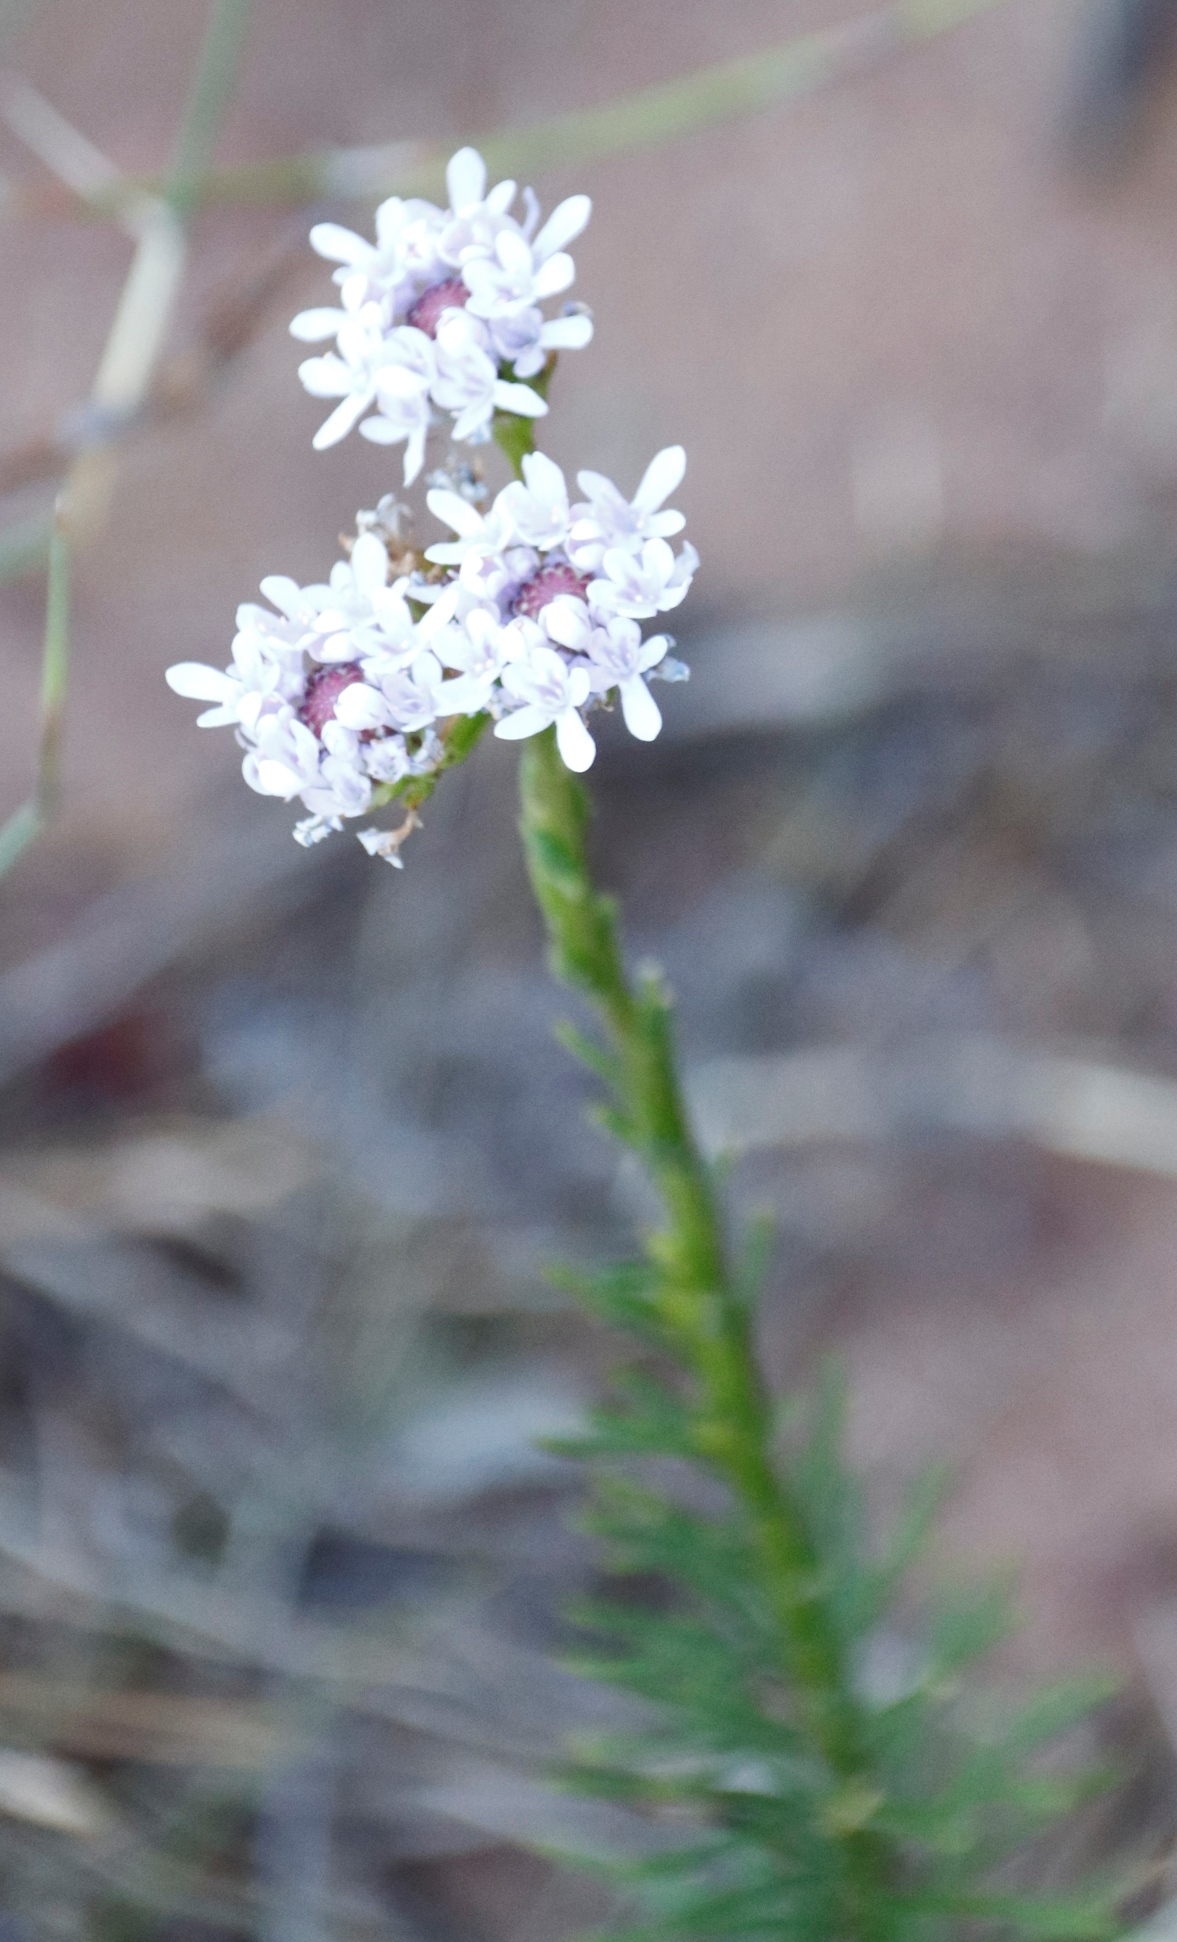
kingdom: Plantae
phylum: Tracheophyta
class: Magnoliopsida
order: Lamiales
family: Scrophulariaceae
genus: Pseudoselago
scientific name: Pseudoselago spuria
